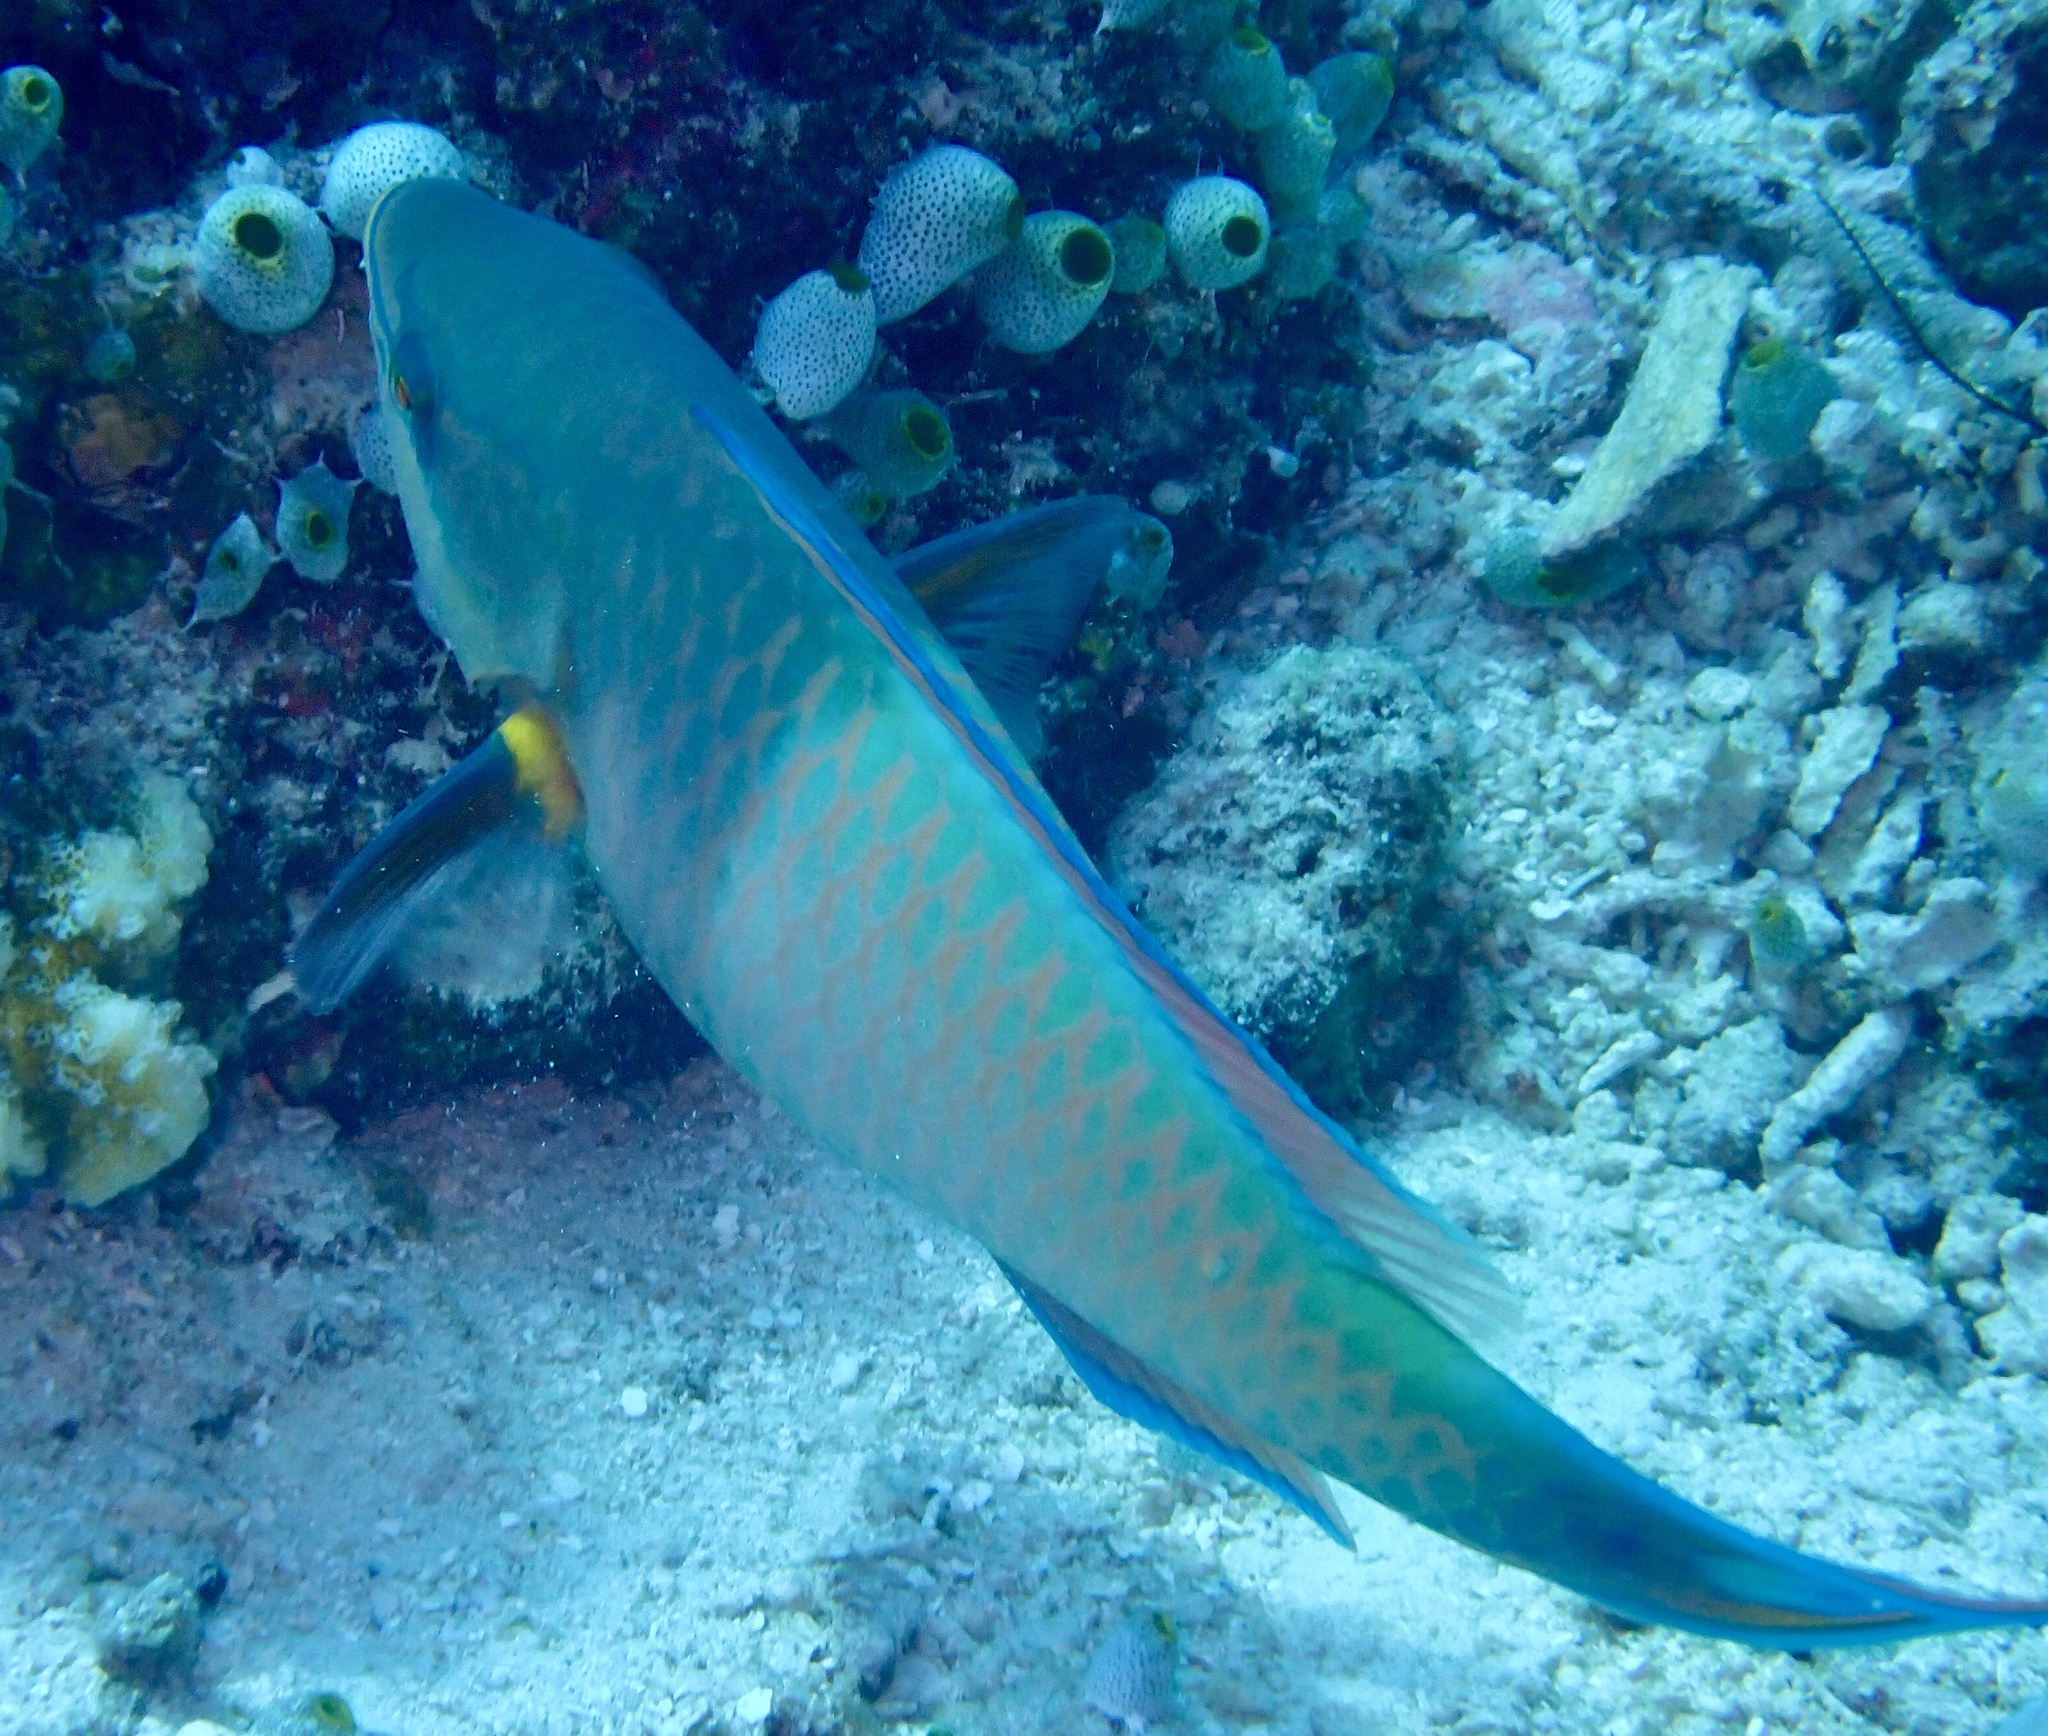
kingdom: Animalia
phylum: Chordata
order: Perciformes
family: Scaridae
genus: Scarus
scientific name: Scarus tricolor
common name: Tricolour parrotfish
